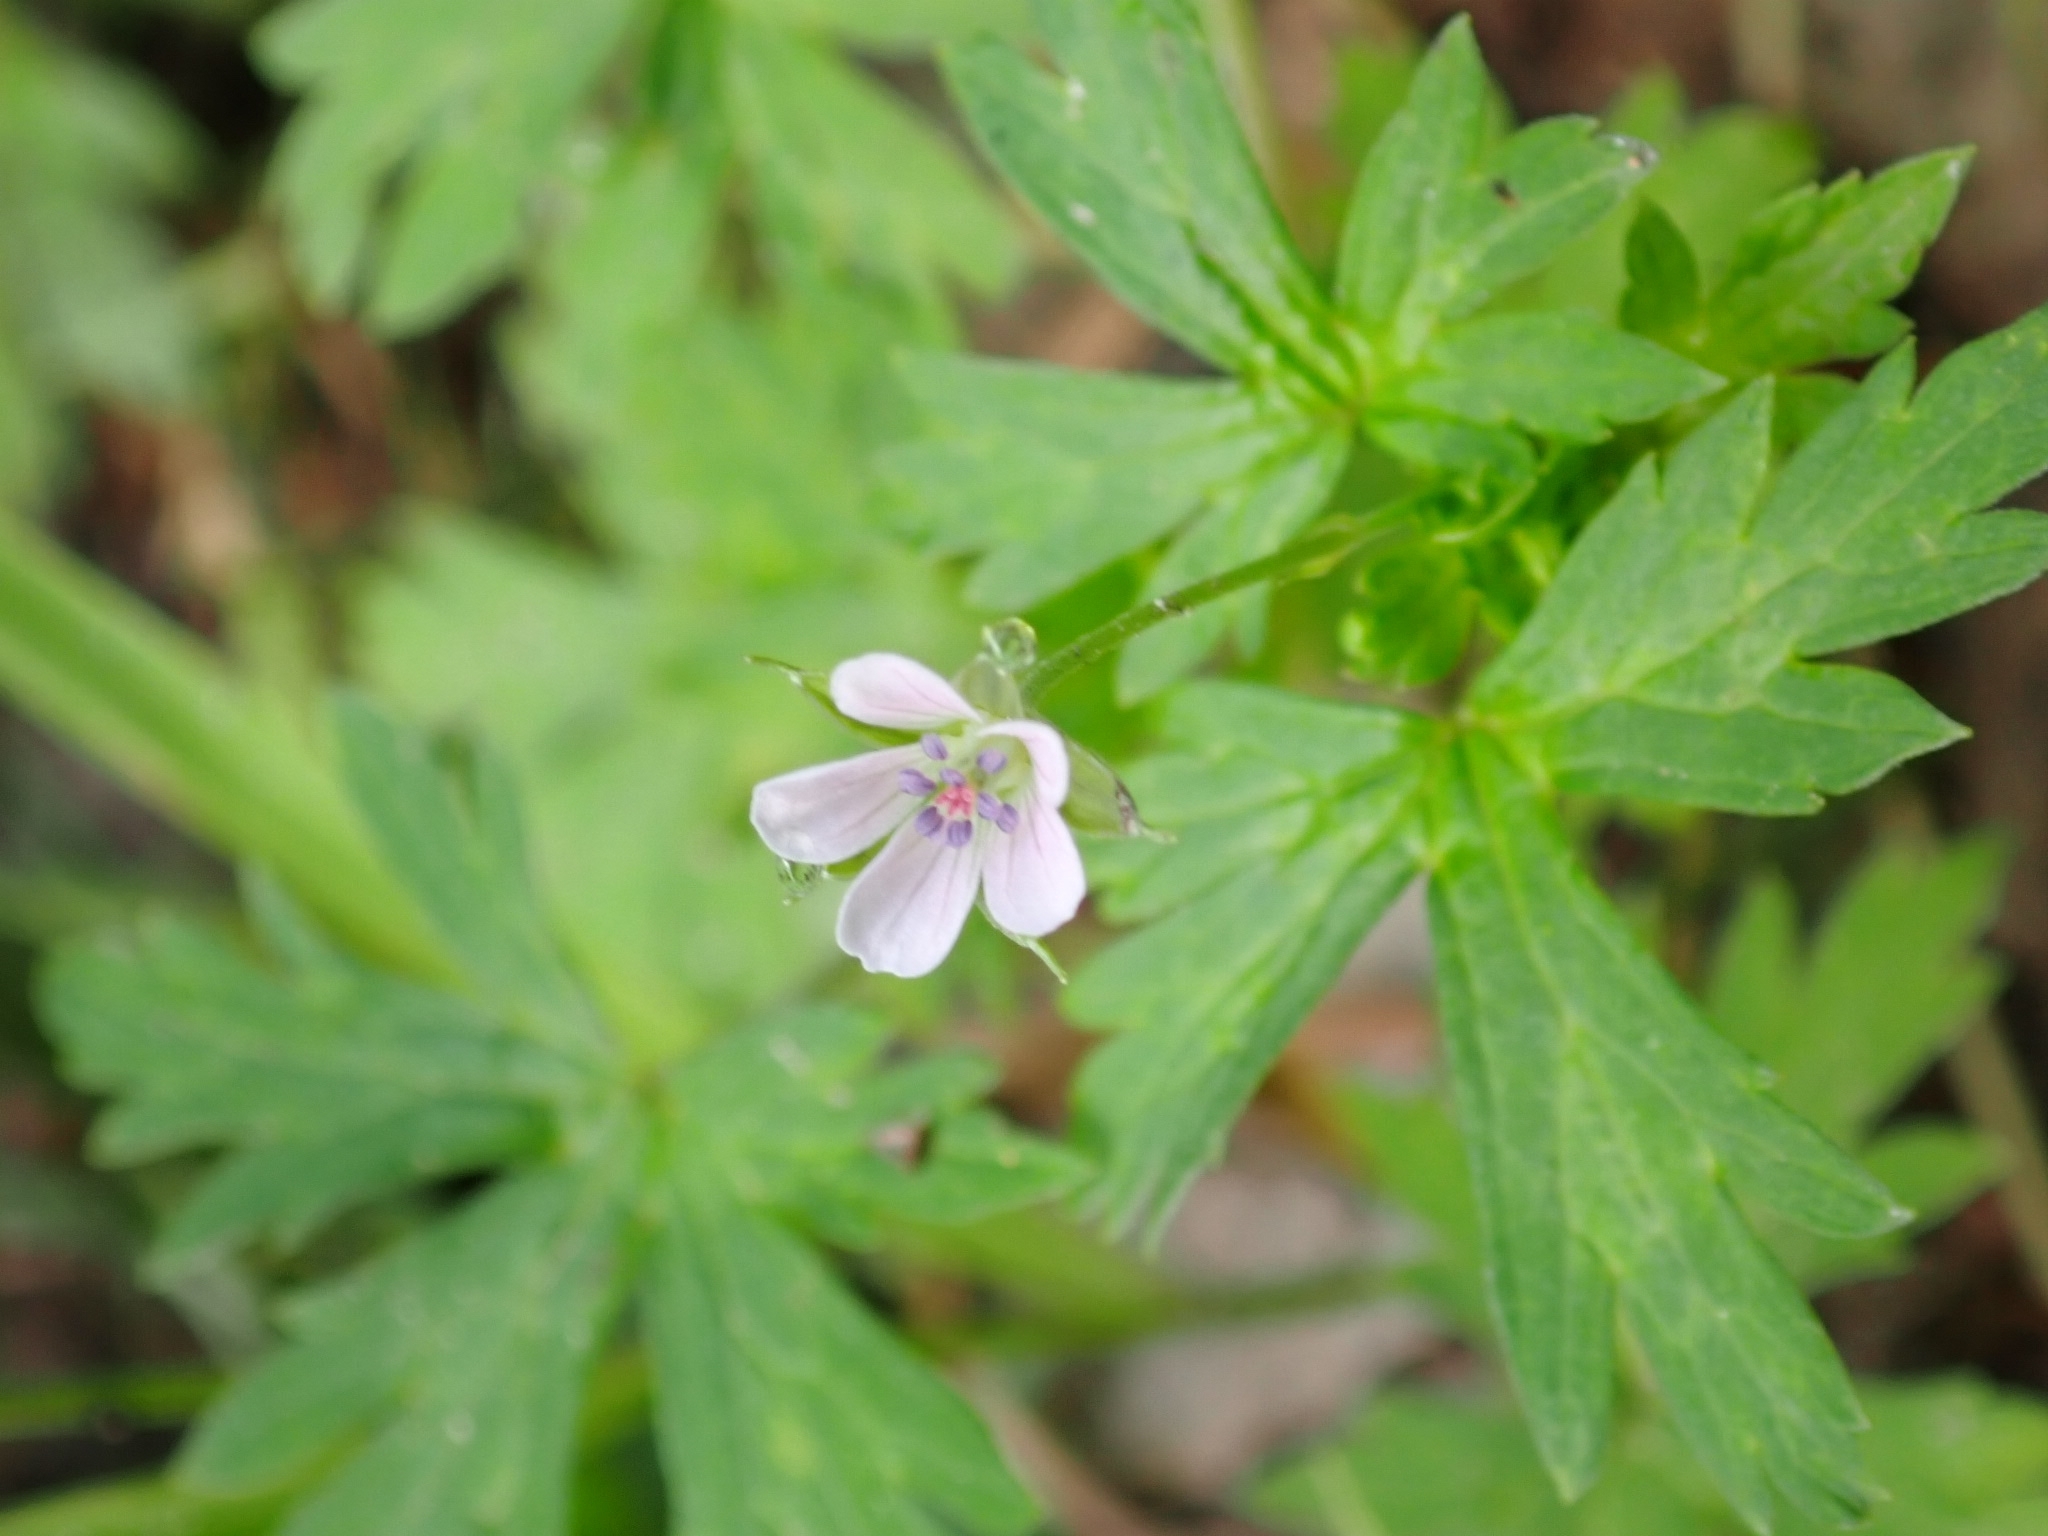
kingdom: Plantae
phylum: Tracheophyta
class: Magnoliopsida
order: Geraniales
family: Geraniaceae
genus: Geranium
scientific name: Geranium sibiricum
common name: Siberian crane's-bill
